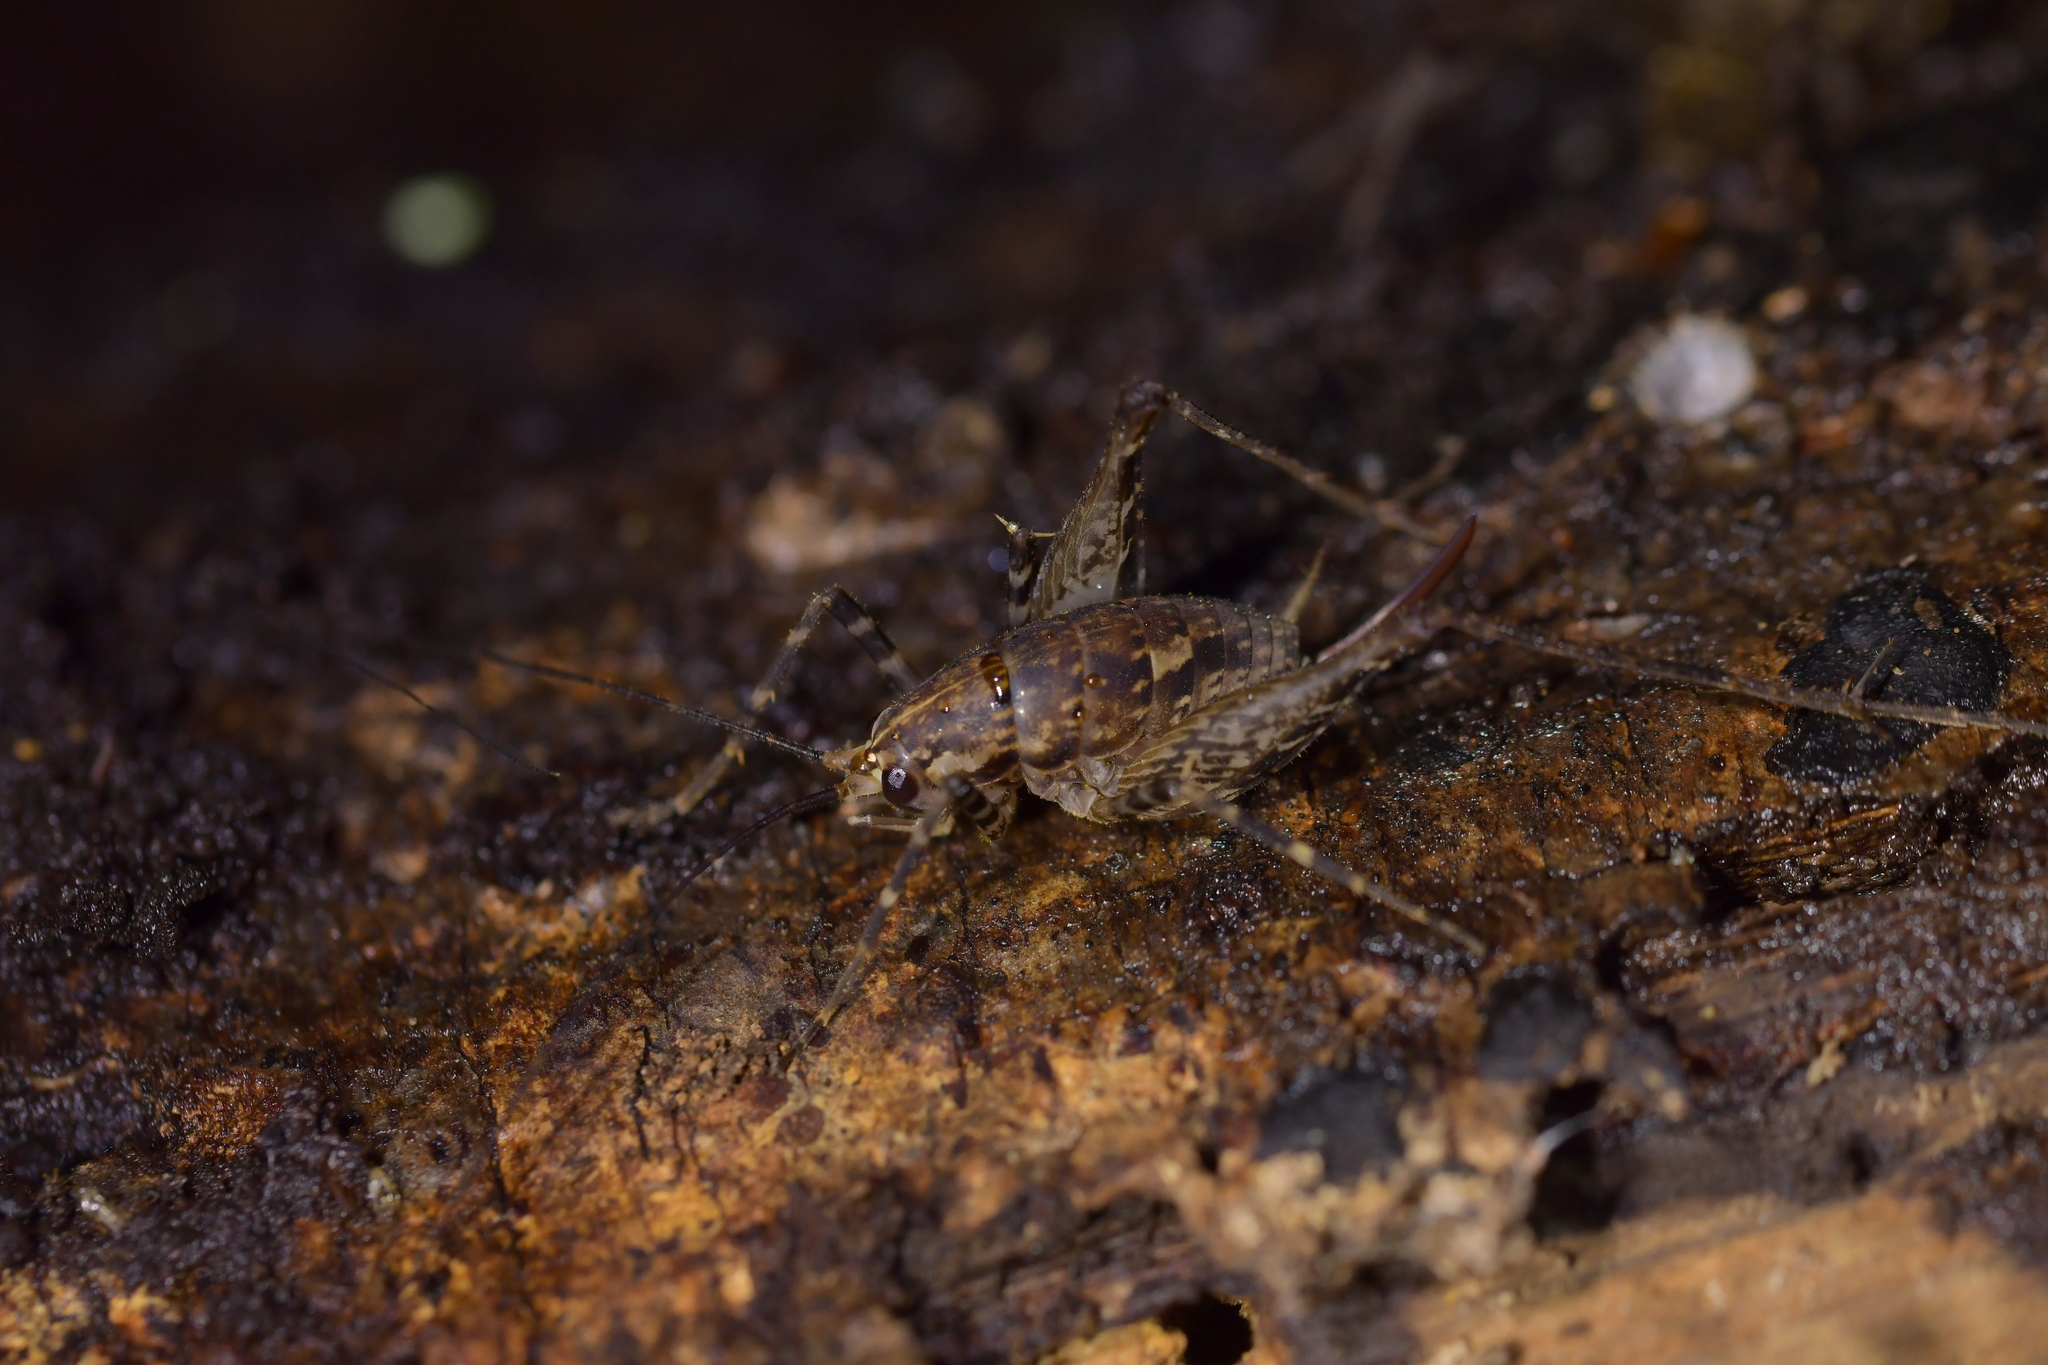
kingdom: Animalia
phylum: Arthropoda
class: Insecta
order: Orthoptera
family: Rhaphidophoridae
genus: Pleioplectron
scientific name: Pleioplectron hudsoni
